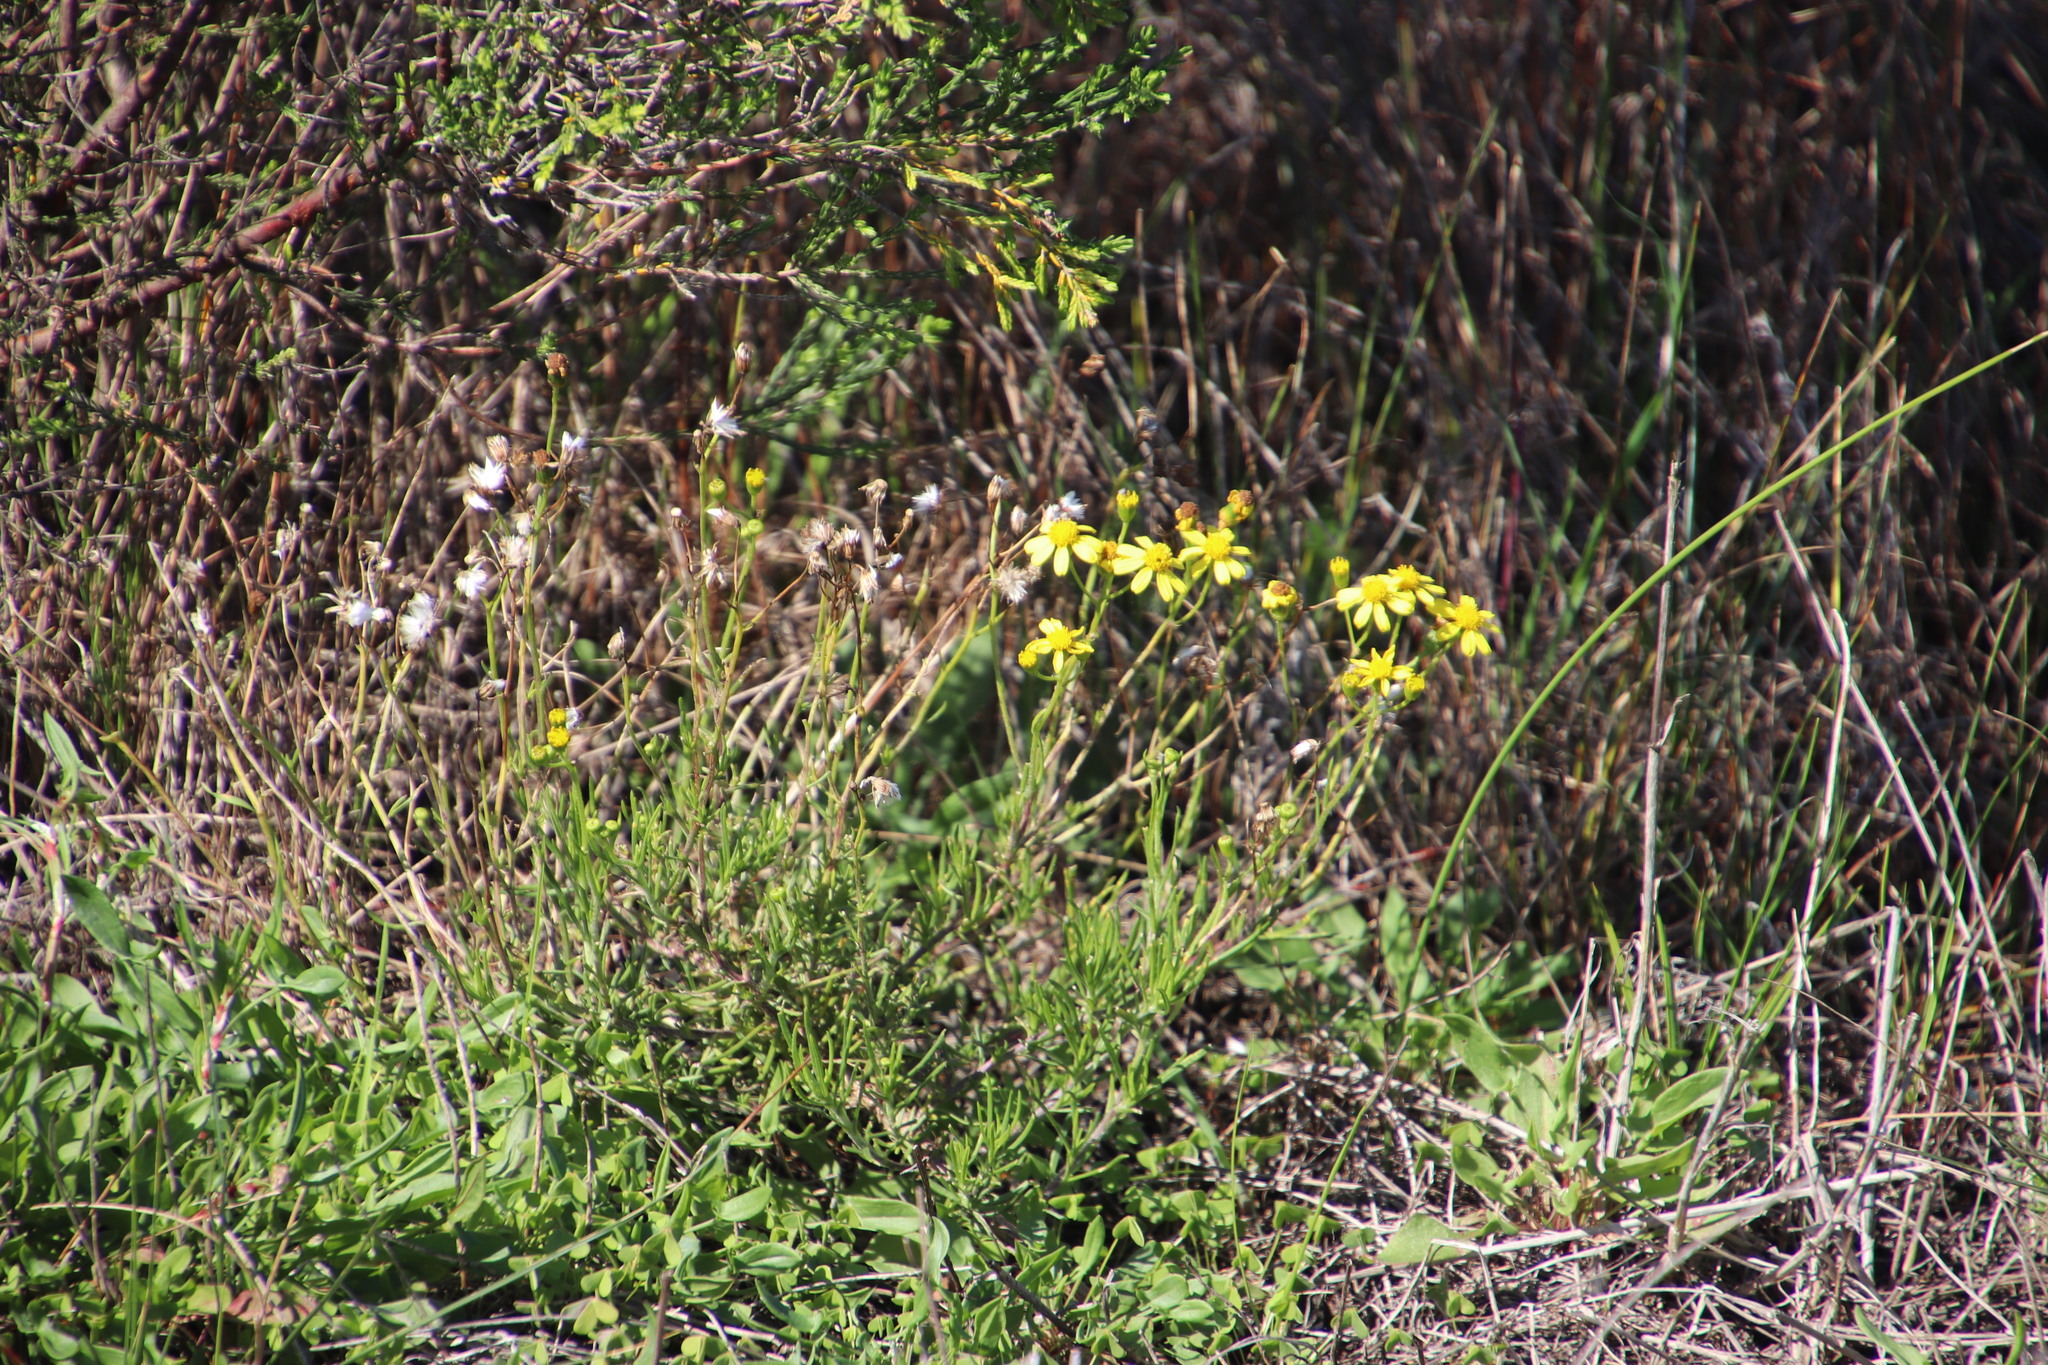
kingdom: Plantae
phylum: Tracheophyta
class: Magnoliopsida
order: Asterales
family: Asteraceae
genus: Senecio
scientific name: Senecio burchellii
